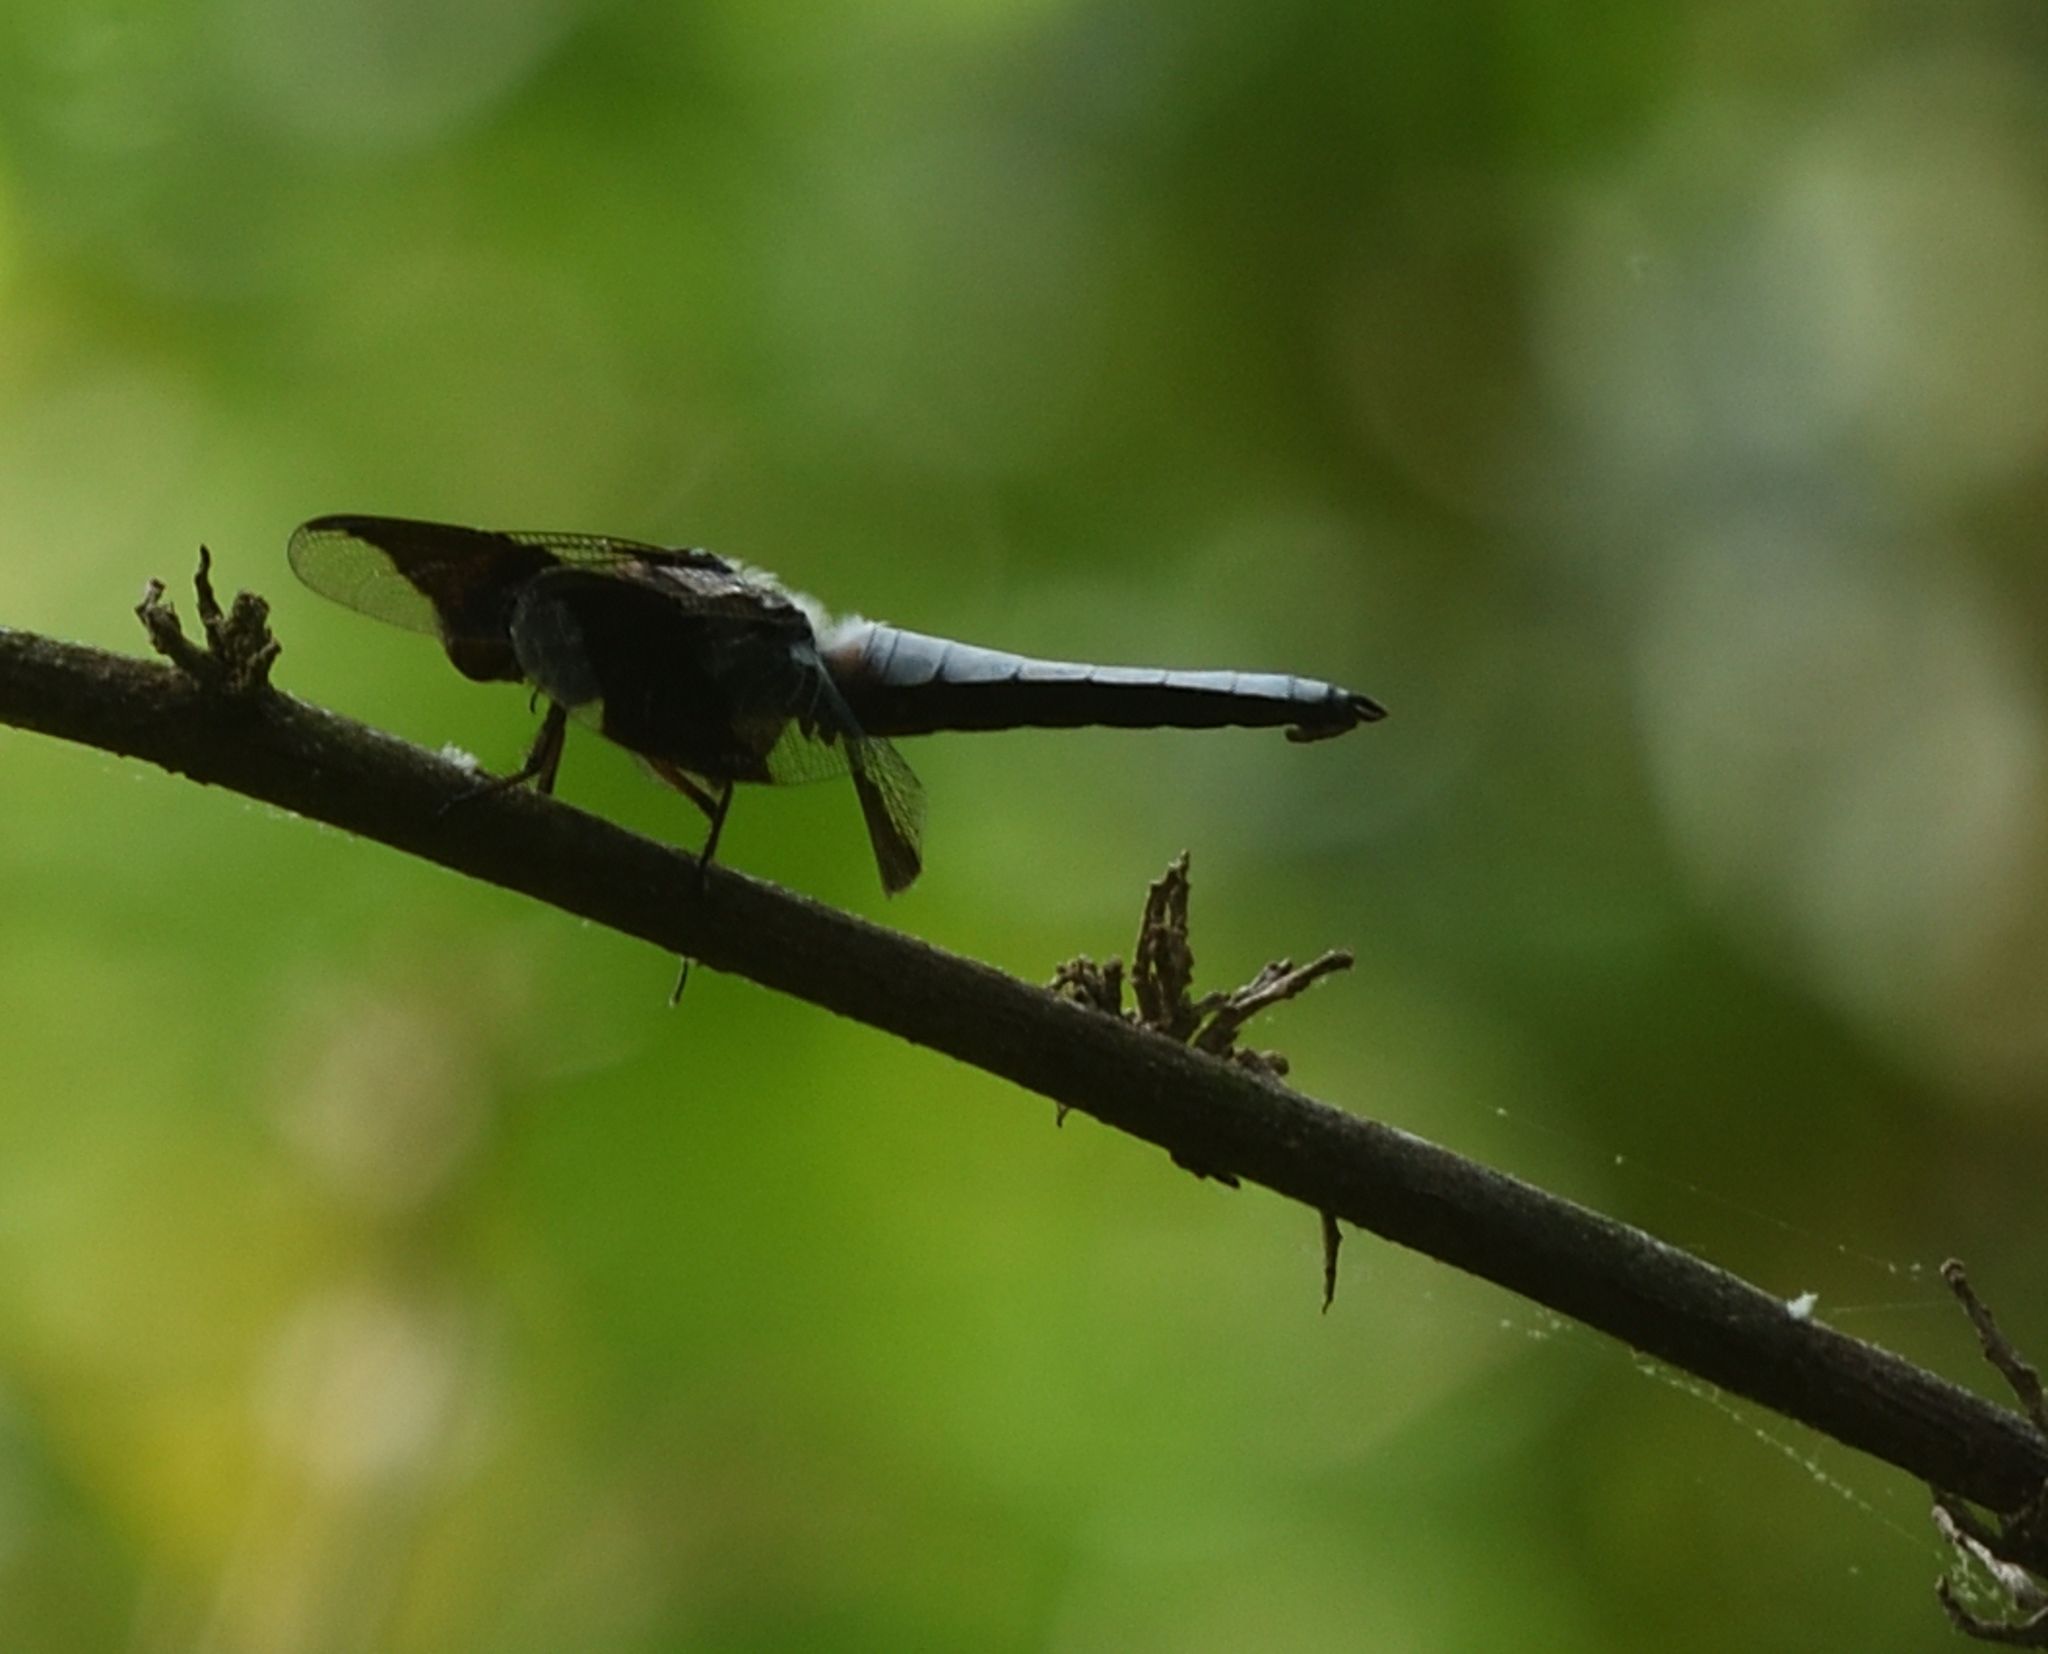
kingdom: Animalia
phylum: Arthropoda
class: Insecta
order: Odonata
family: Libellulidae
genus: Plathemis
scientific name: Plathemis lydia
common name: Common whitetail
